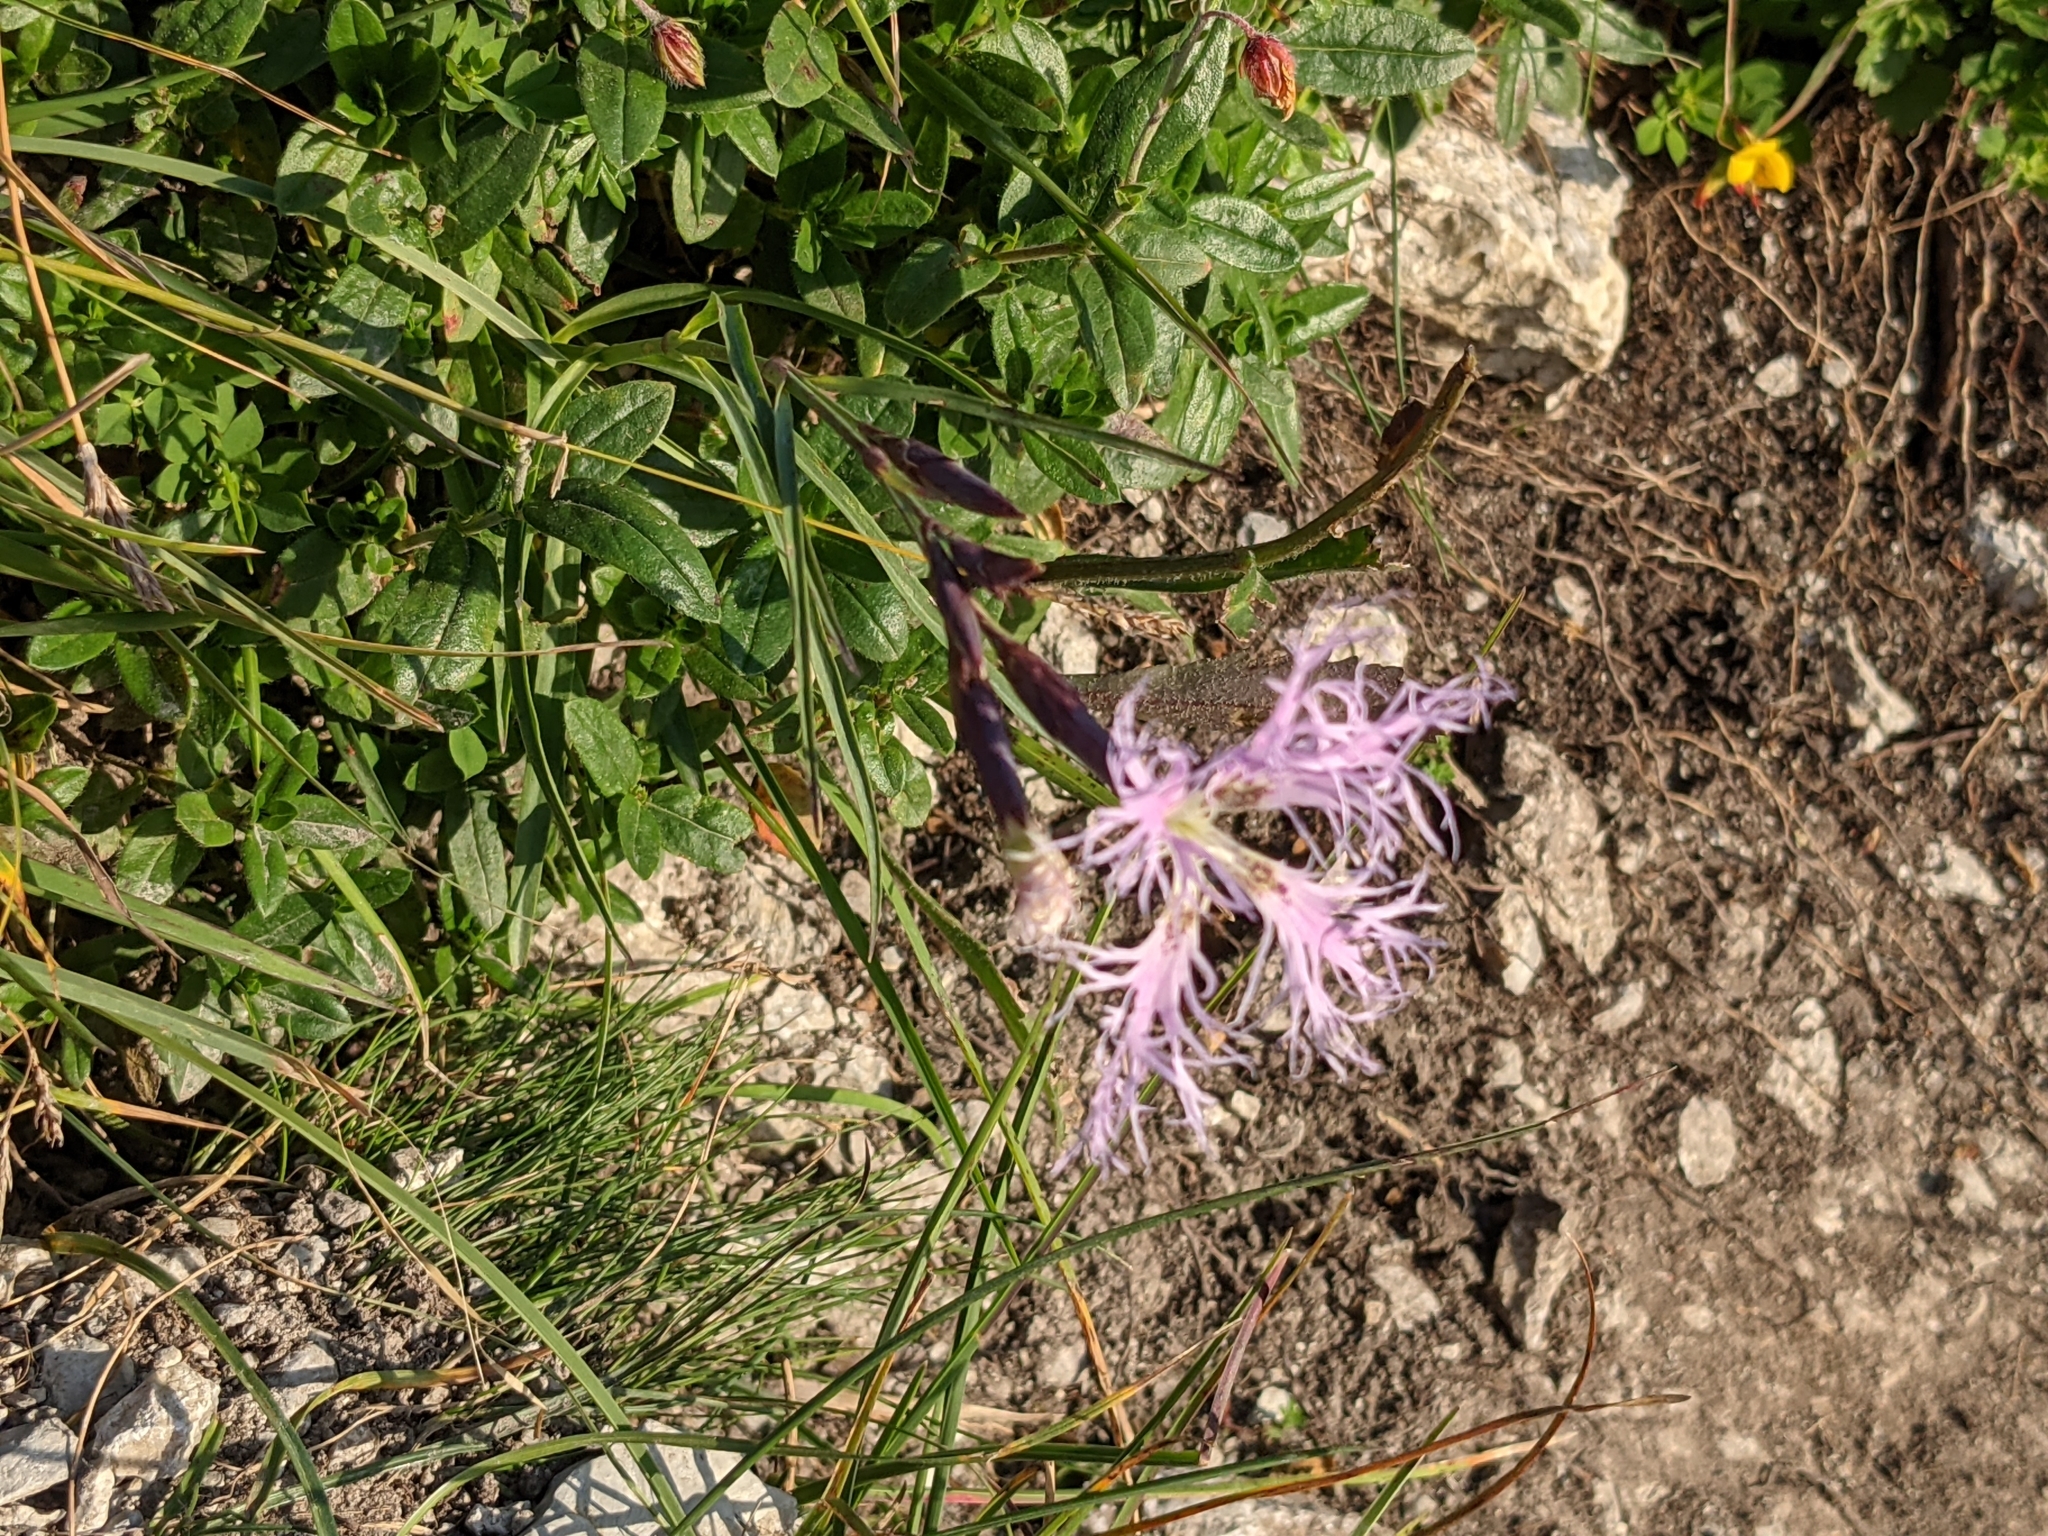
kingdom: Plantae
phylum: Tracheophyta
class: Magnoliopsida
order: Caryophyllales
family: Caryophyllaceae
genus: Dianthus
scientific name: Dianthus superbus
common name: Fringed pink
